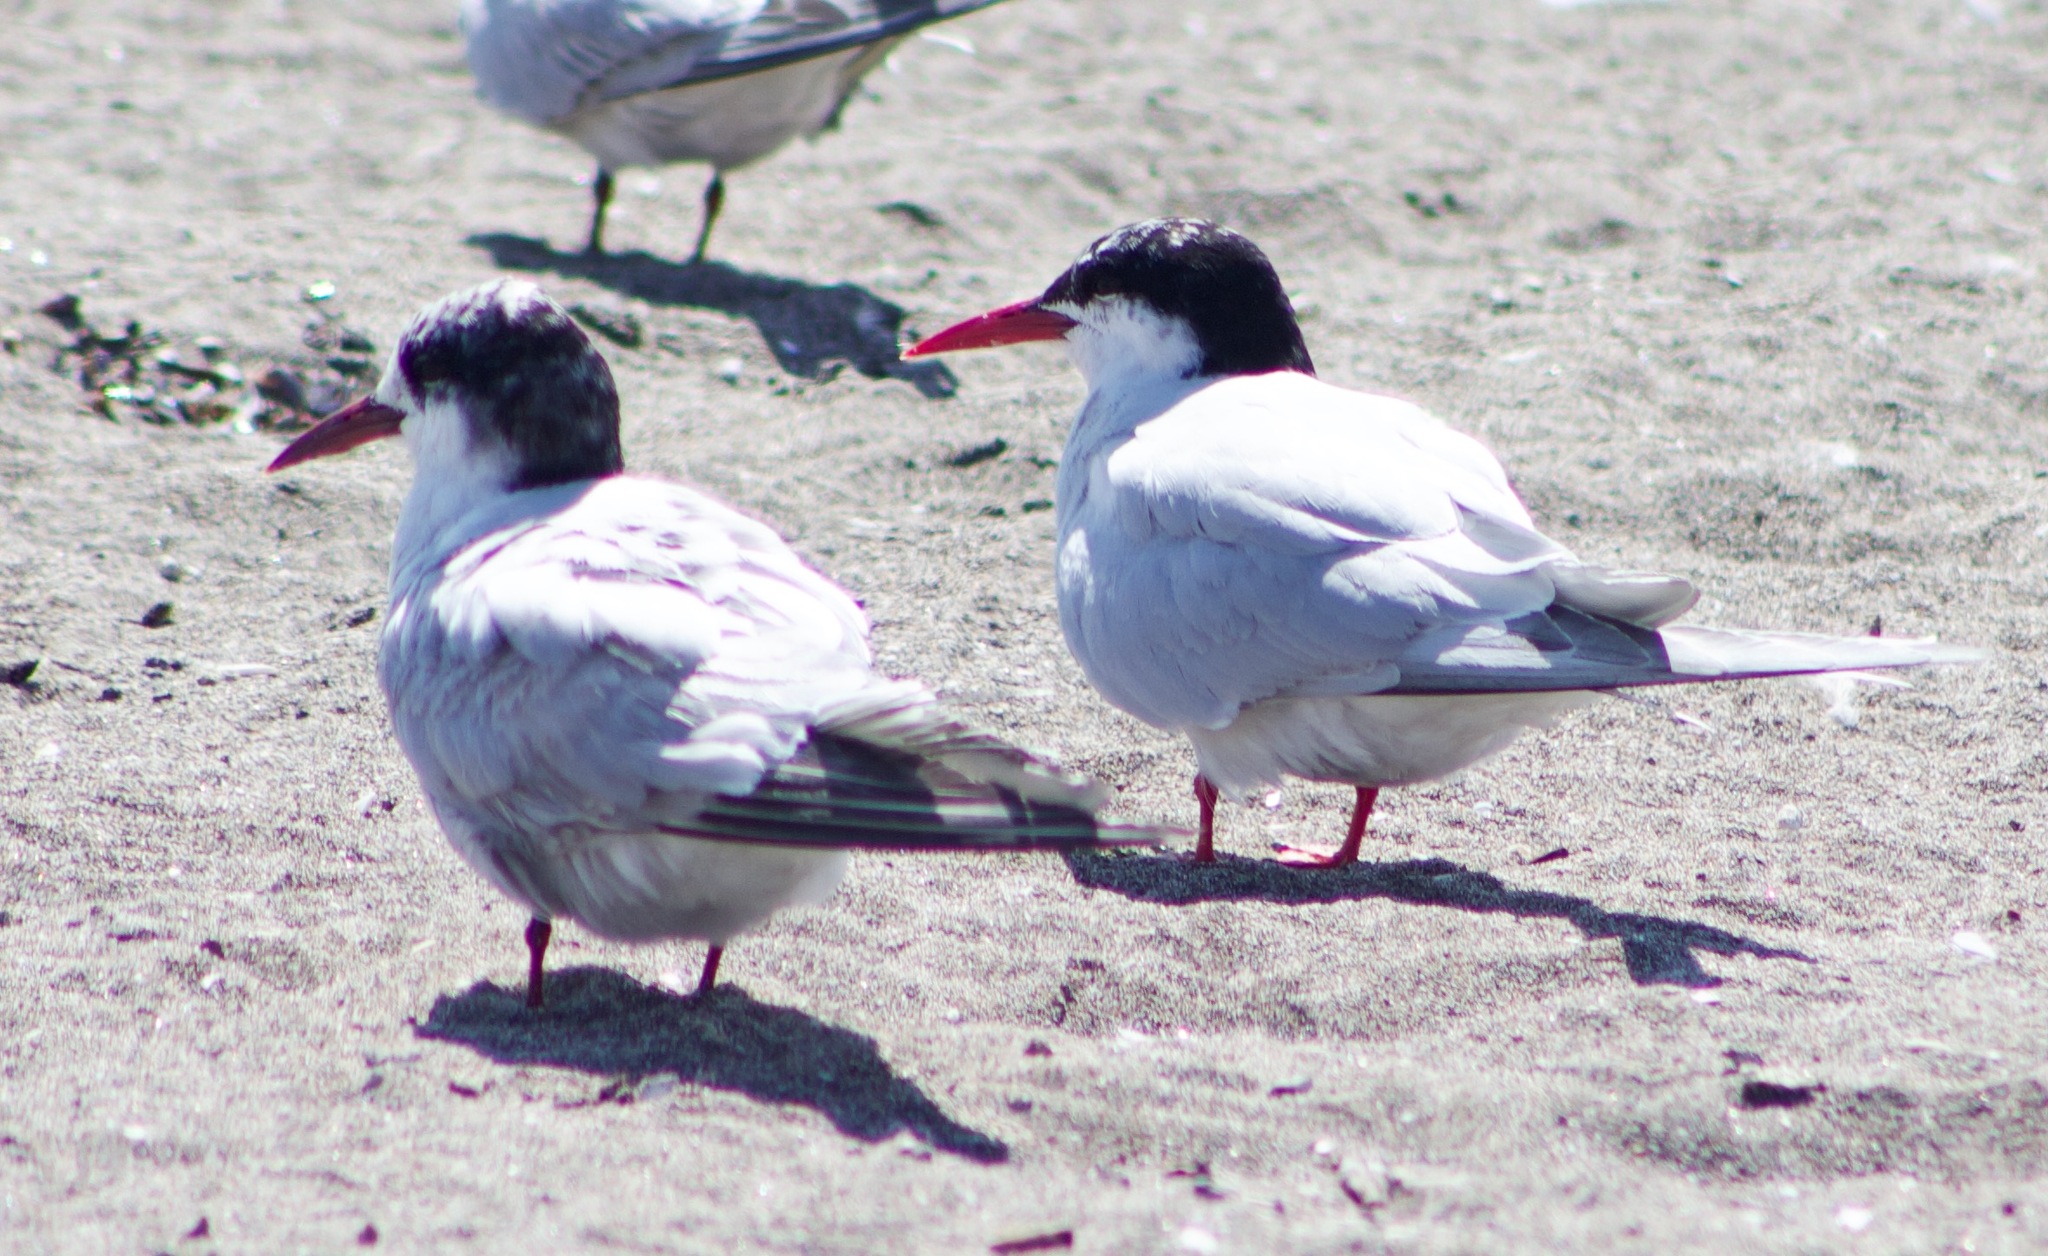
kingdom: Animalia
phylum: Chordata
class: Aves
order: Charadriiformes
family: Laridae
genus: Sterna
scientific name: Sterna hirundinacea
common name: South american tern
